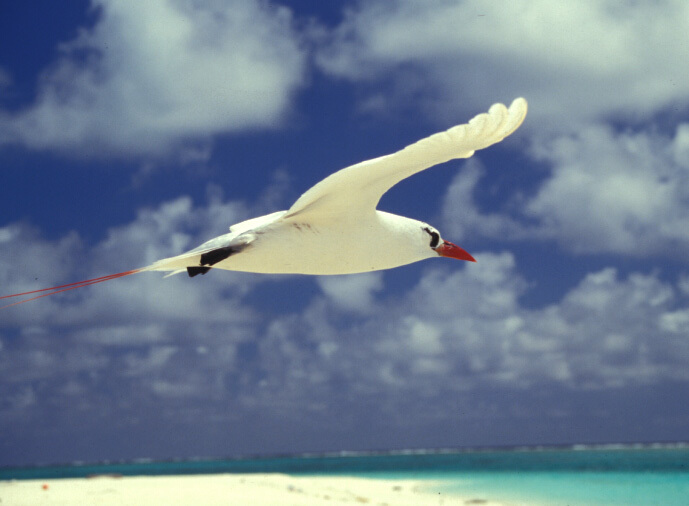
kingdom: Animalia
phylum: Chordata
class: Aves
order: Phaethontiformes
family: Phaethontidae
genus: Phaethon
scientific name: Phaethon rubricauda
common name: Red-tailed tropicbird
